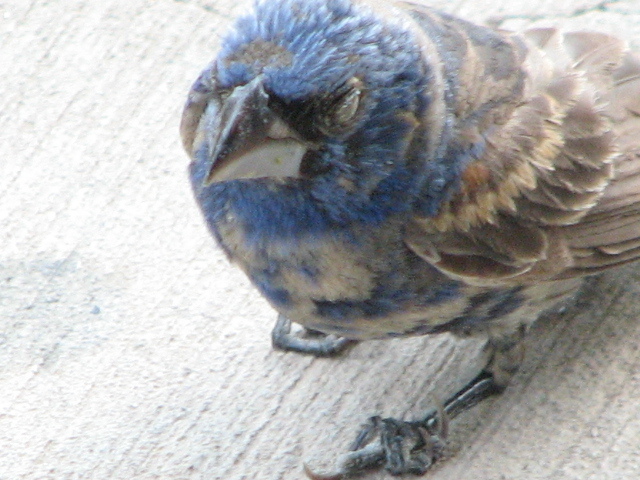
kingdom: Animalia
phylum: Chordata
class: Aves
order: Passeriformes
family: Cardinalidae
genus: Passerina
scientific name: Passerina caerulea
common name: Blue grosbeak
